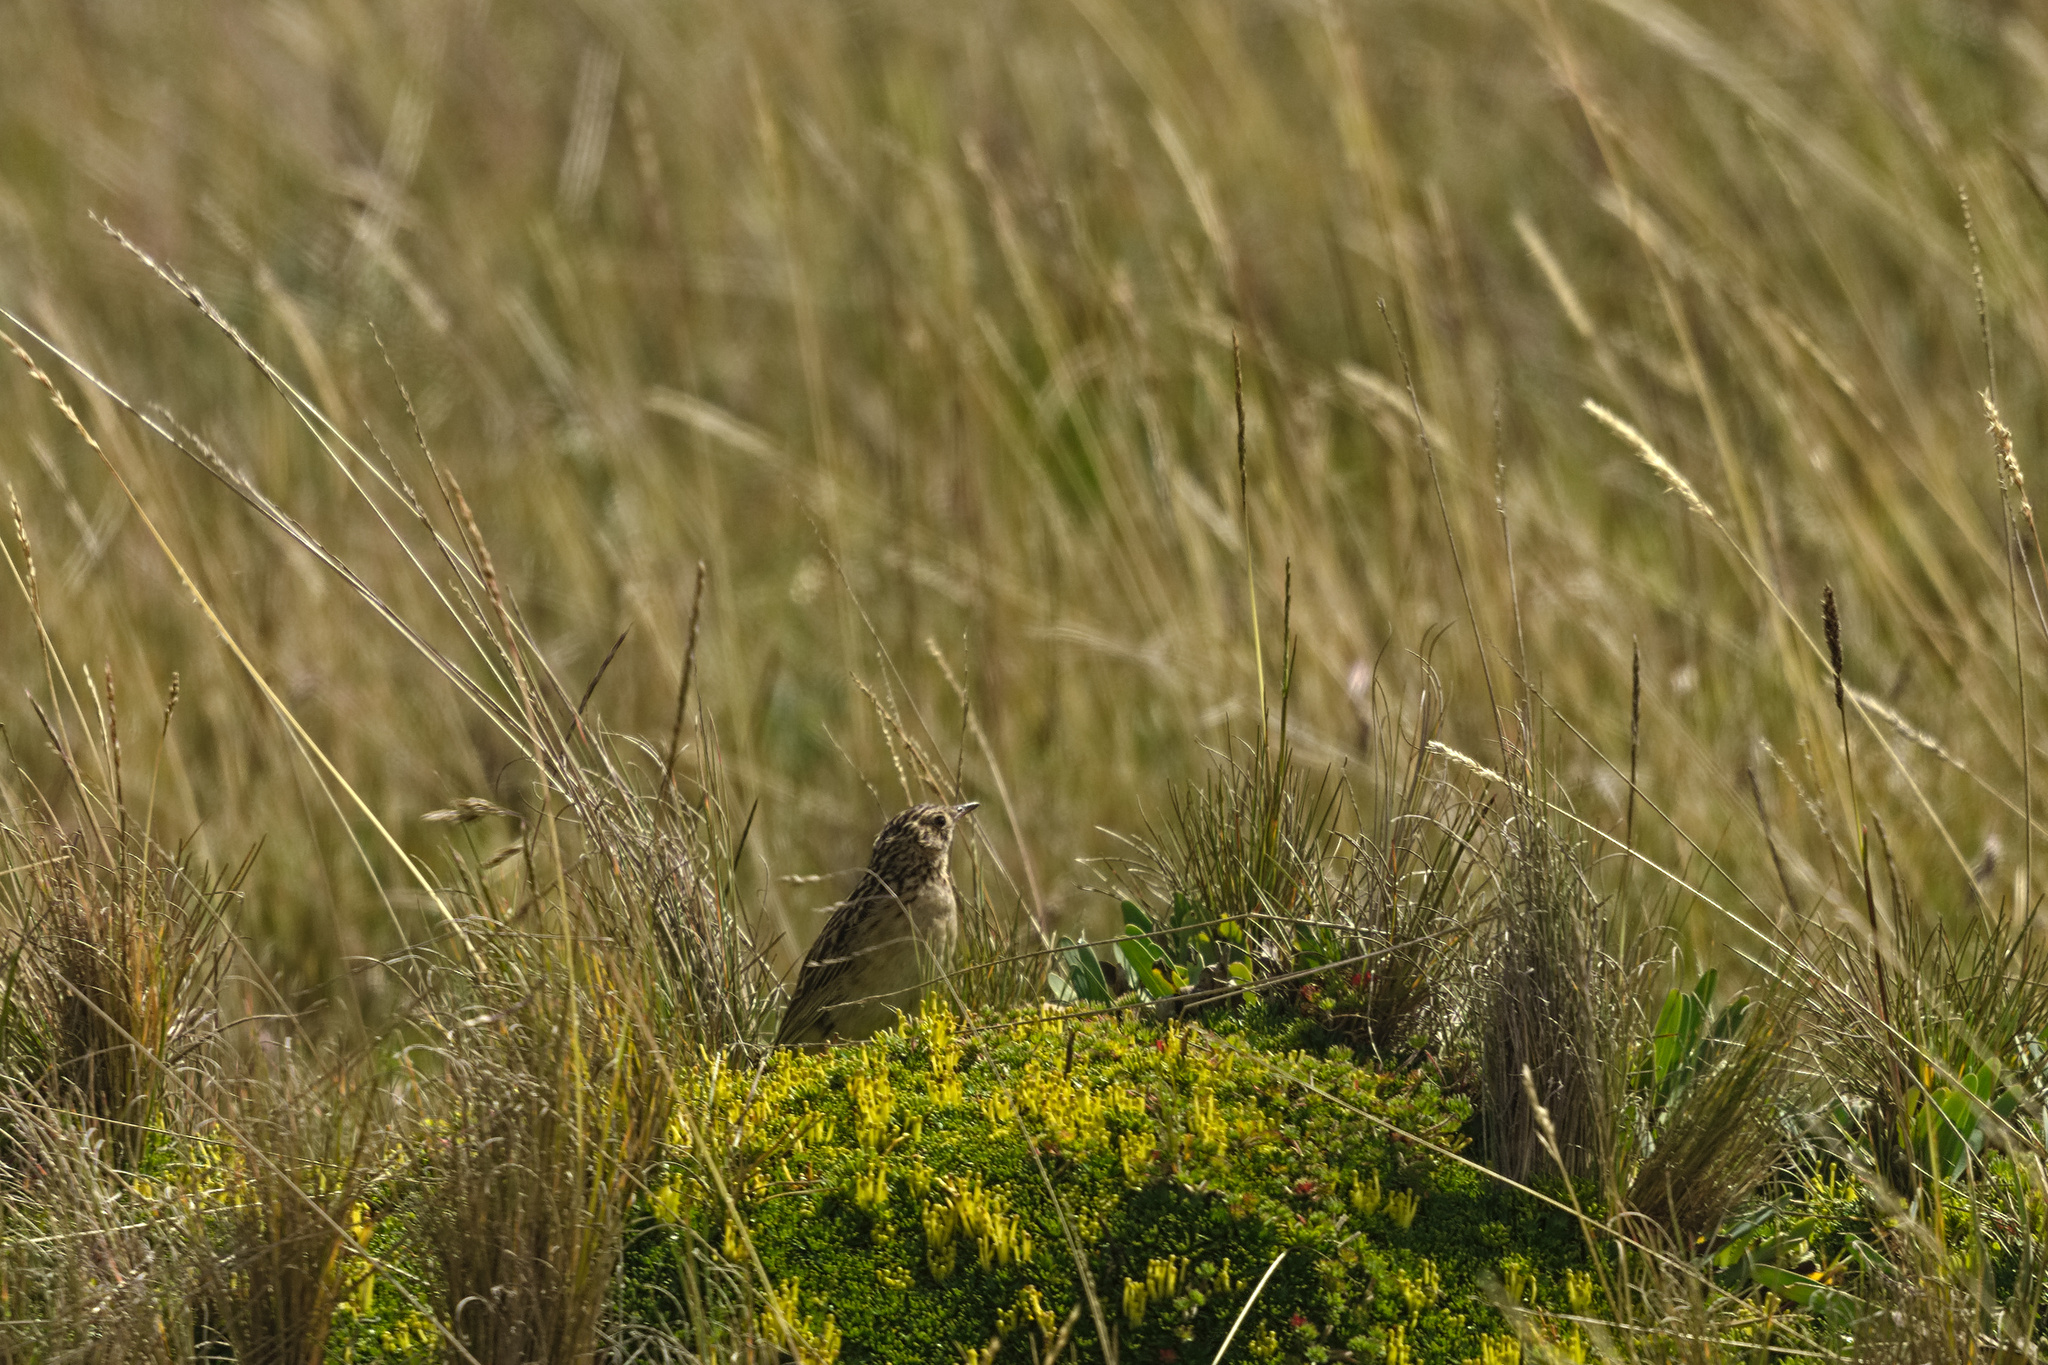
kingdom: Animalia
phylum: Chordata
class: Aves
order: Passeriformes
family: Motacillidae
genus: Anthus
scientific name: Anthus bogotensis
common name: Paramo pipit
